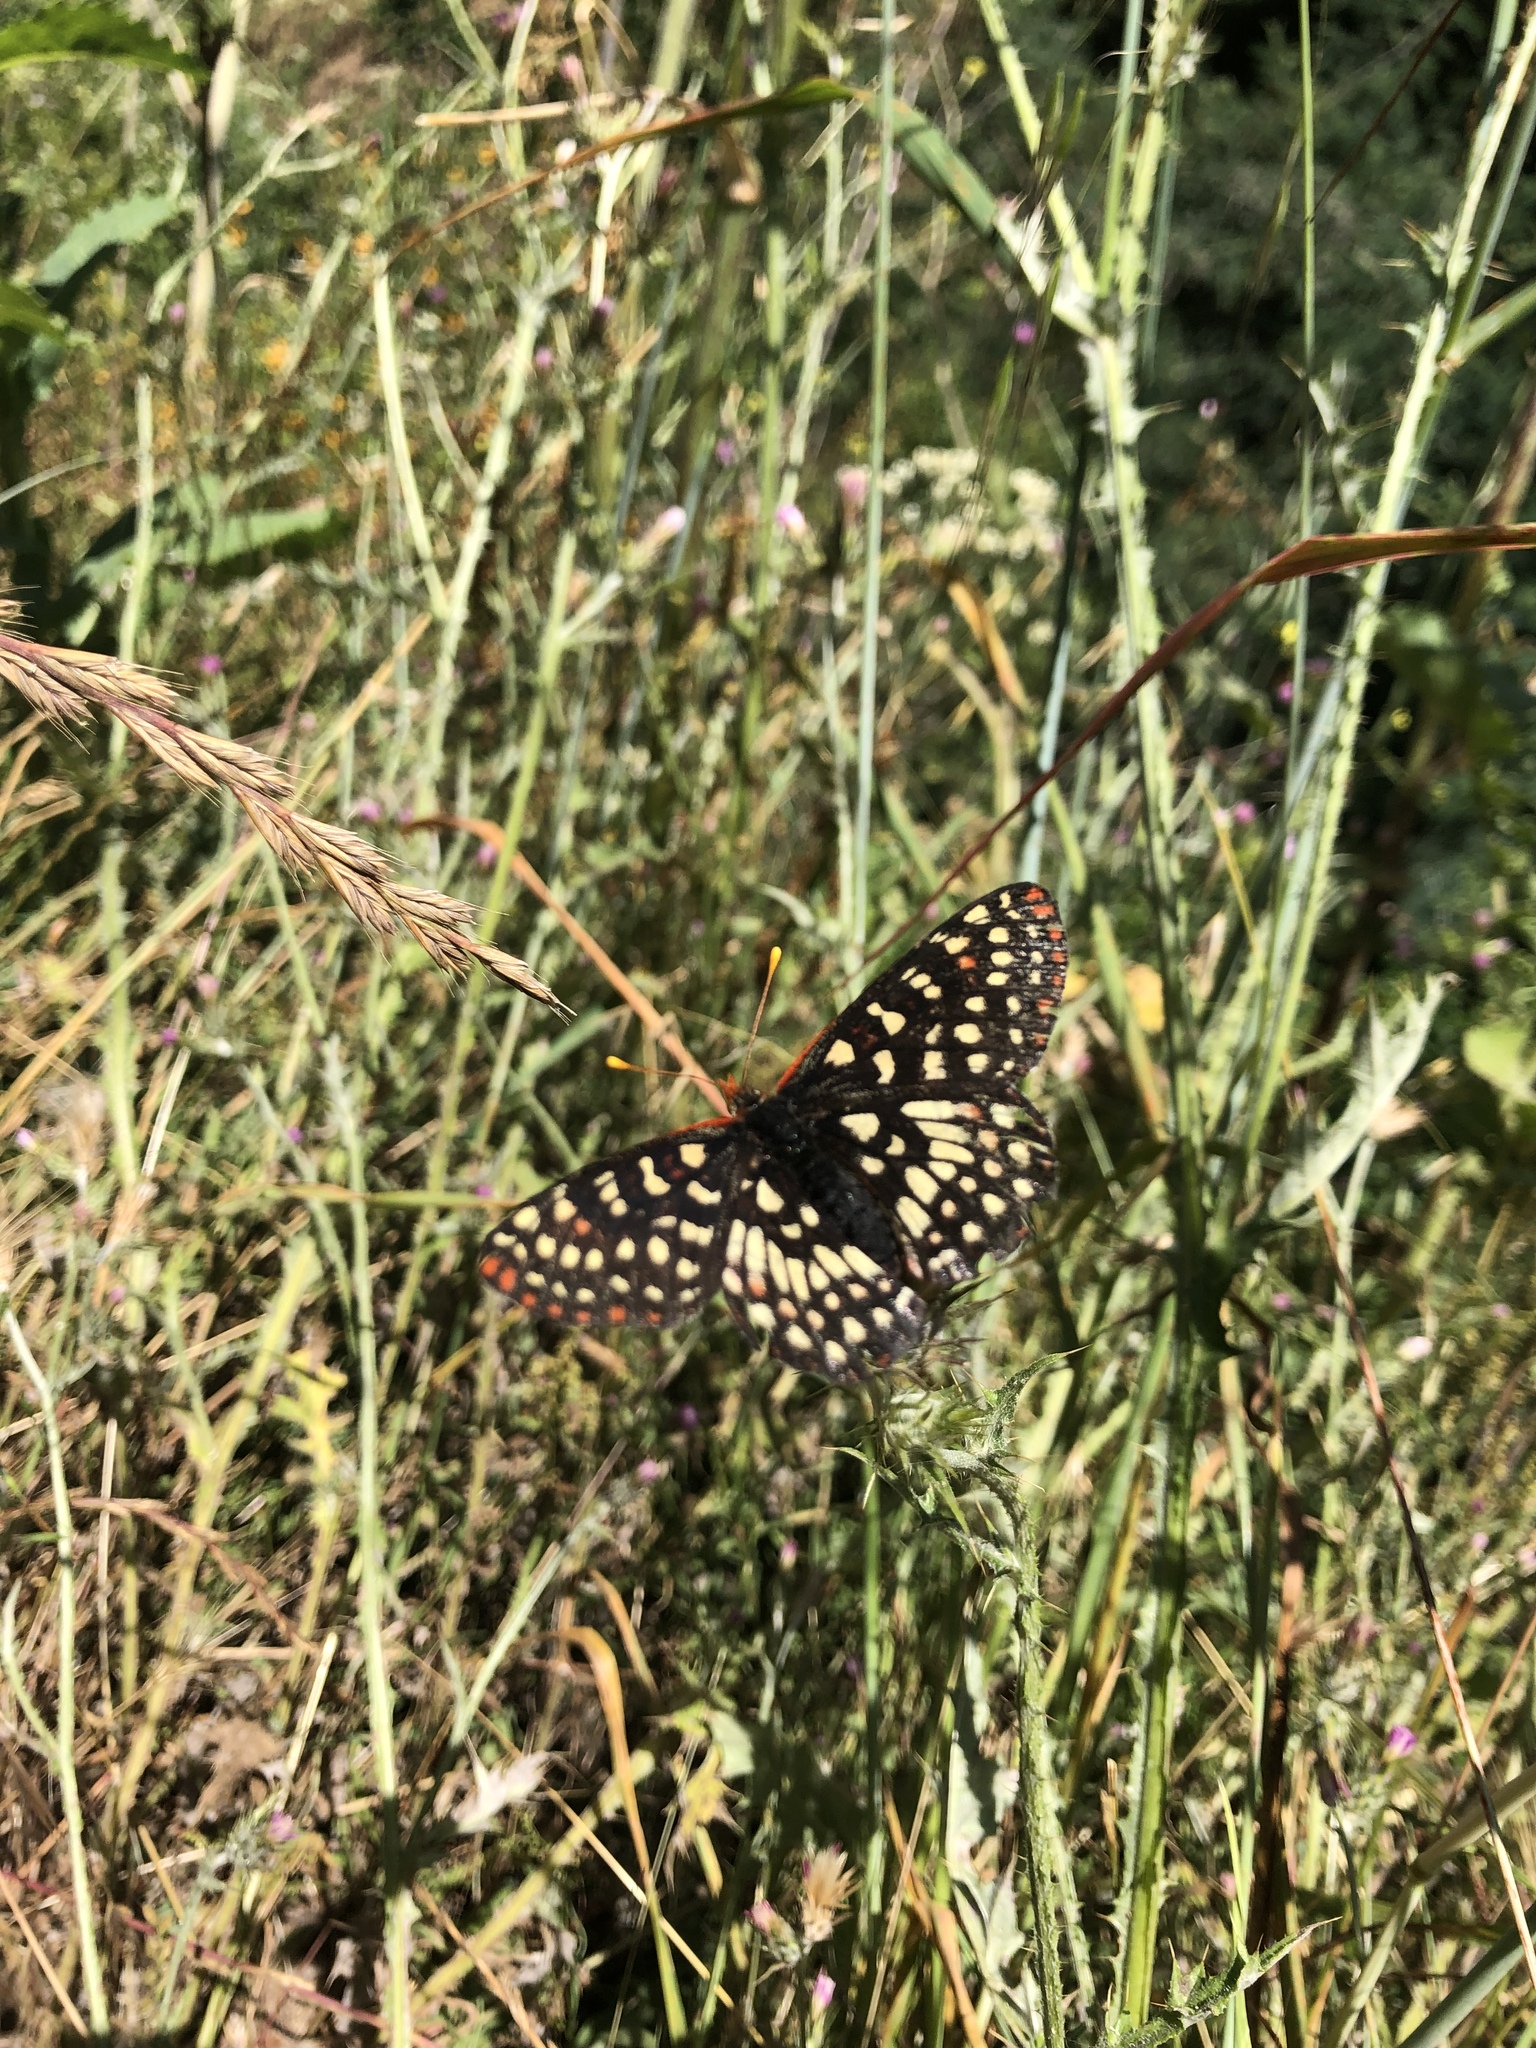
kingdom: Animalia
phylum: Arthropoda
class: Insecta
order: Lepidoptera
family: Nymphalidae
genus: Occidryas
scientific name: Occidryas chalcedona
